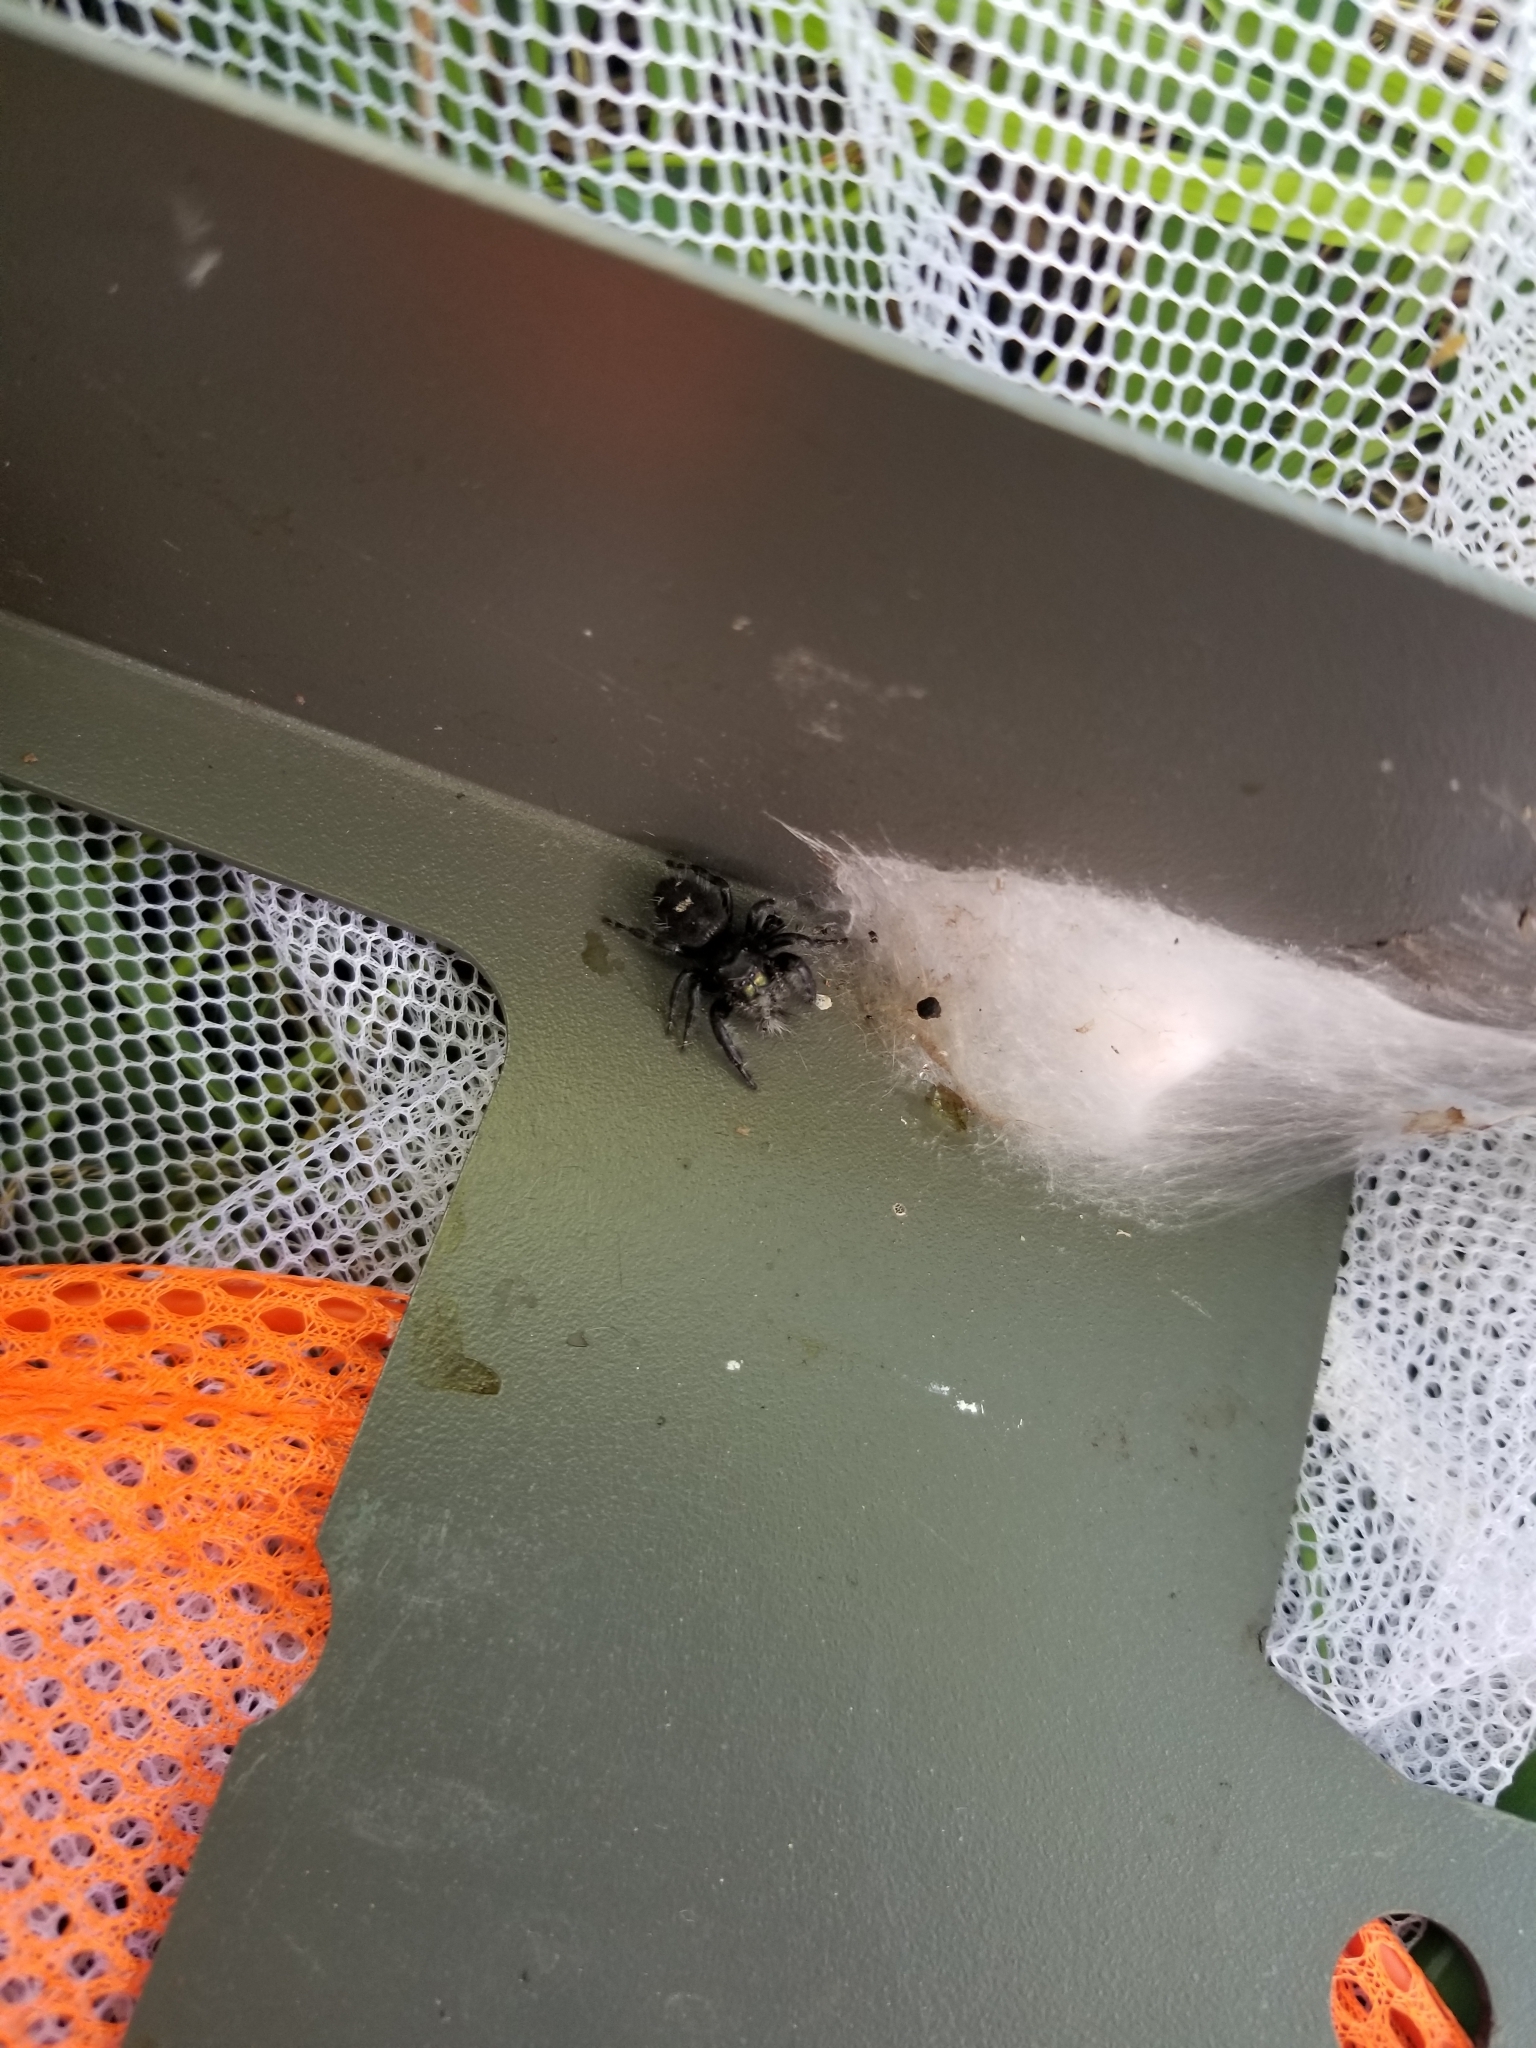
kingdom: Animalia
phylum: Arthropoda
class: Arachnida
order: Araneae
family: Salticidae
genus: Phidippus
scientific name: Phidippus audax
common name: Bold jumper
